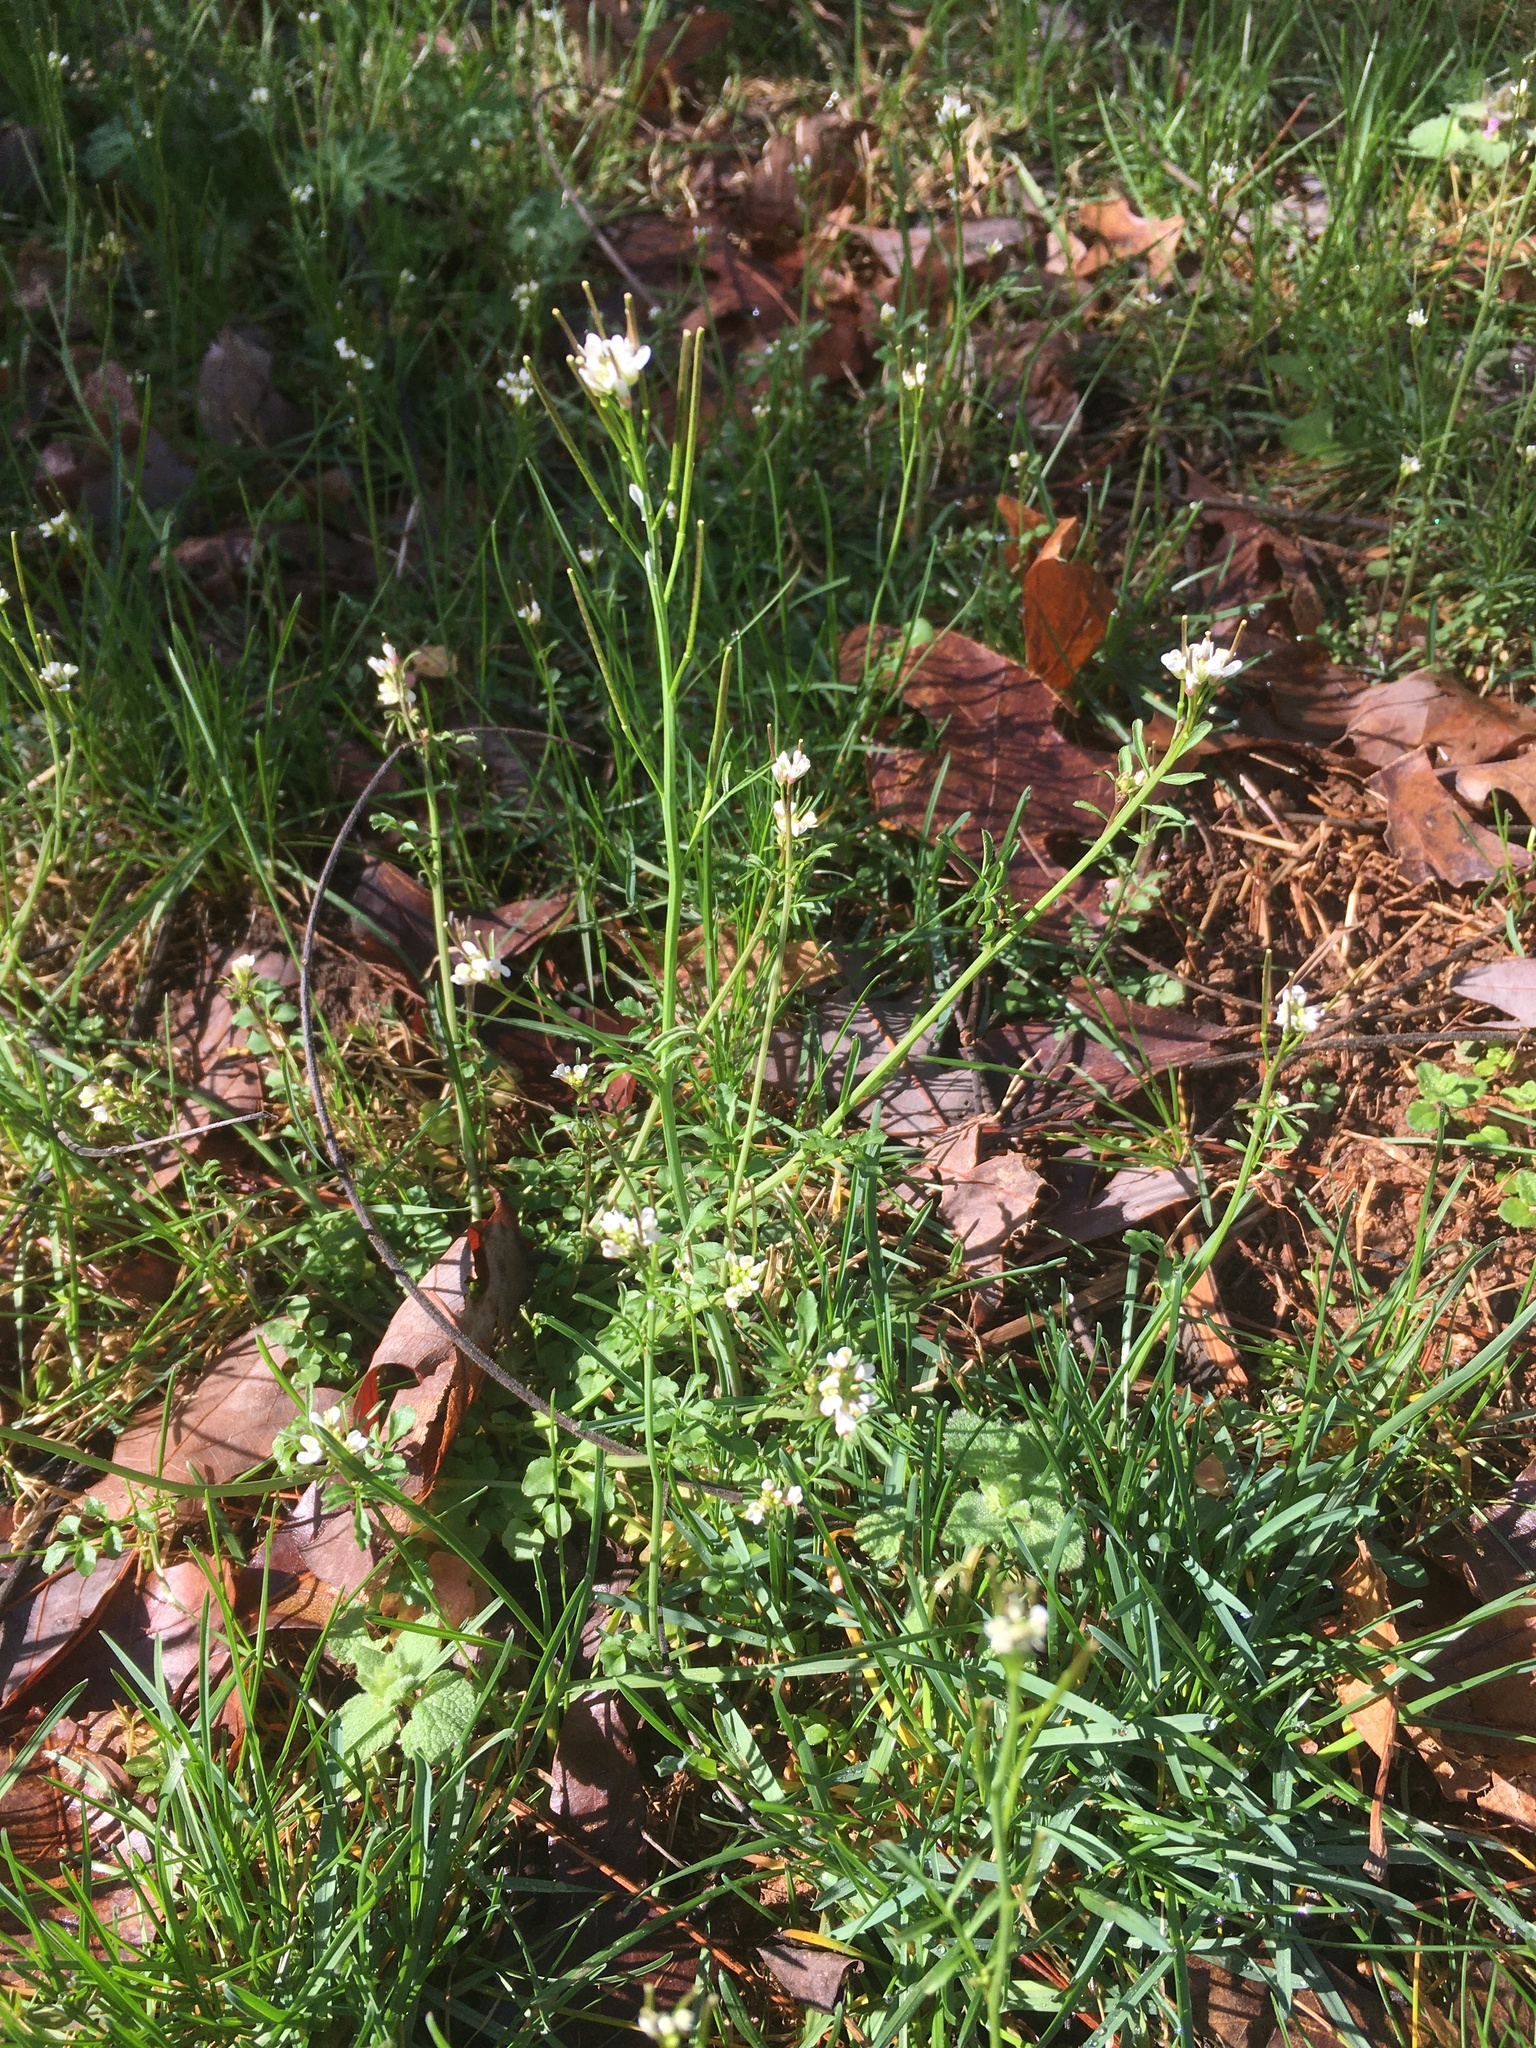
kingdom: Plantae
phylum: Tracheophyta
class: Magnoliopsida
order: Brassicales
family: Brassicaceae
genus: Cardamine
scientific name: Cardamine hirsuta
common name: Hairy bittercress
